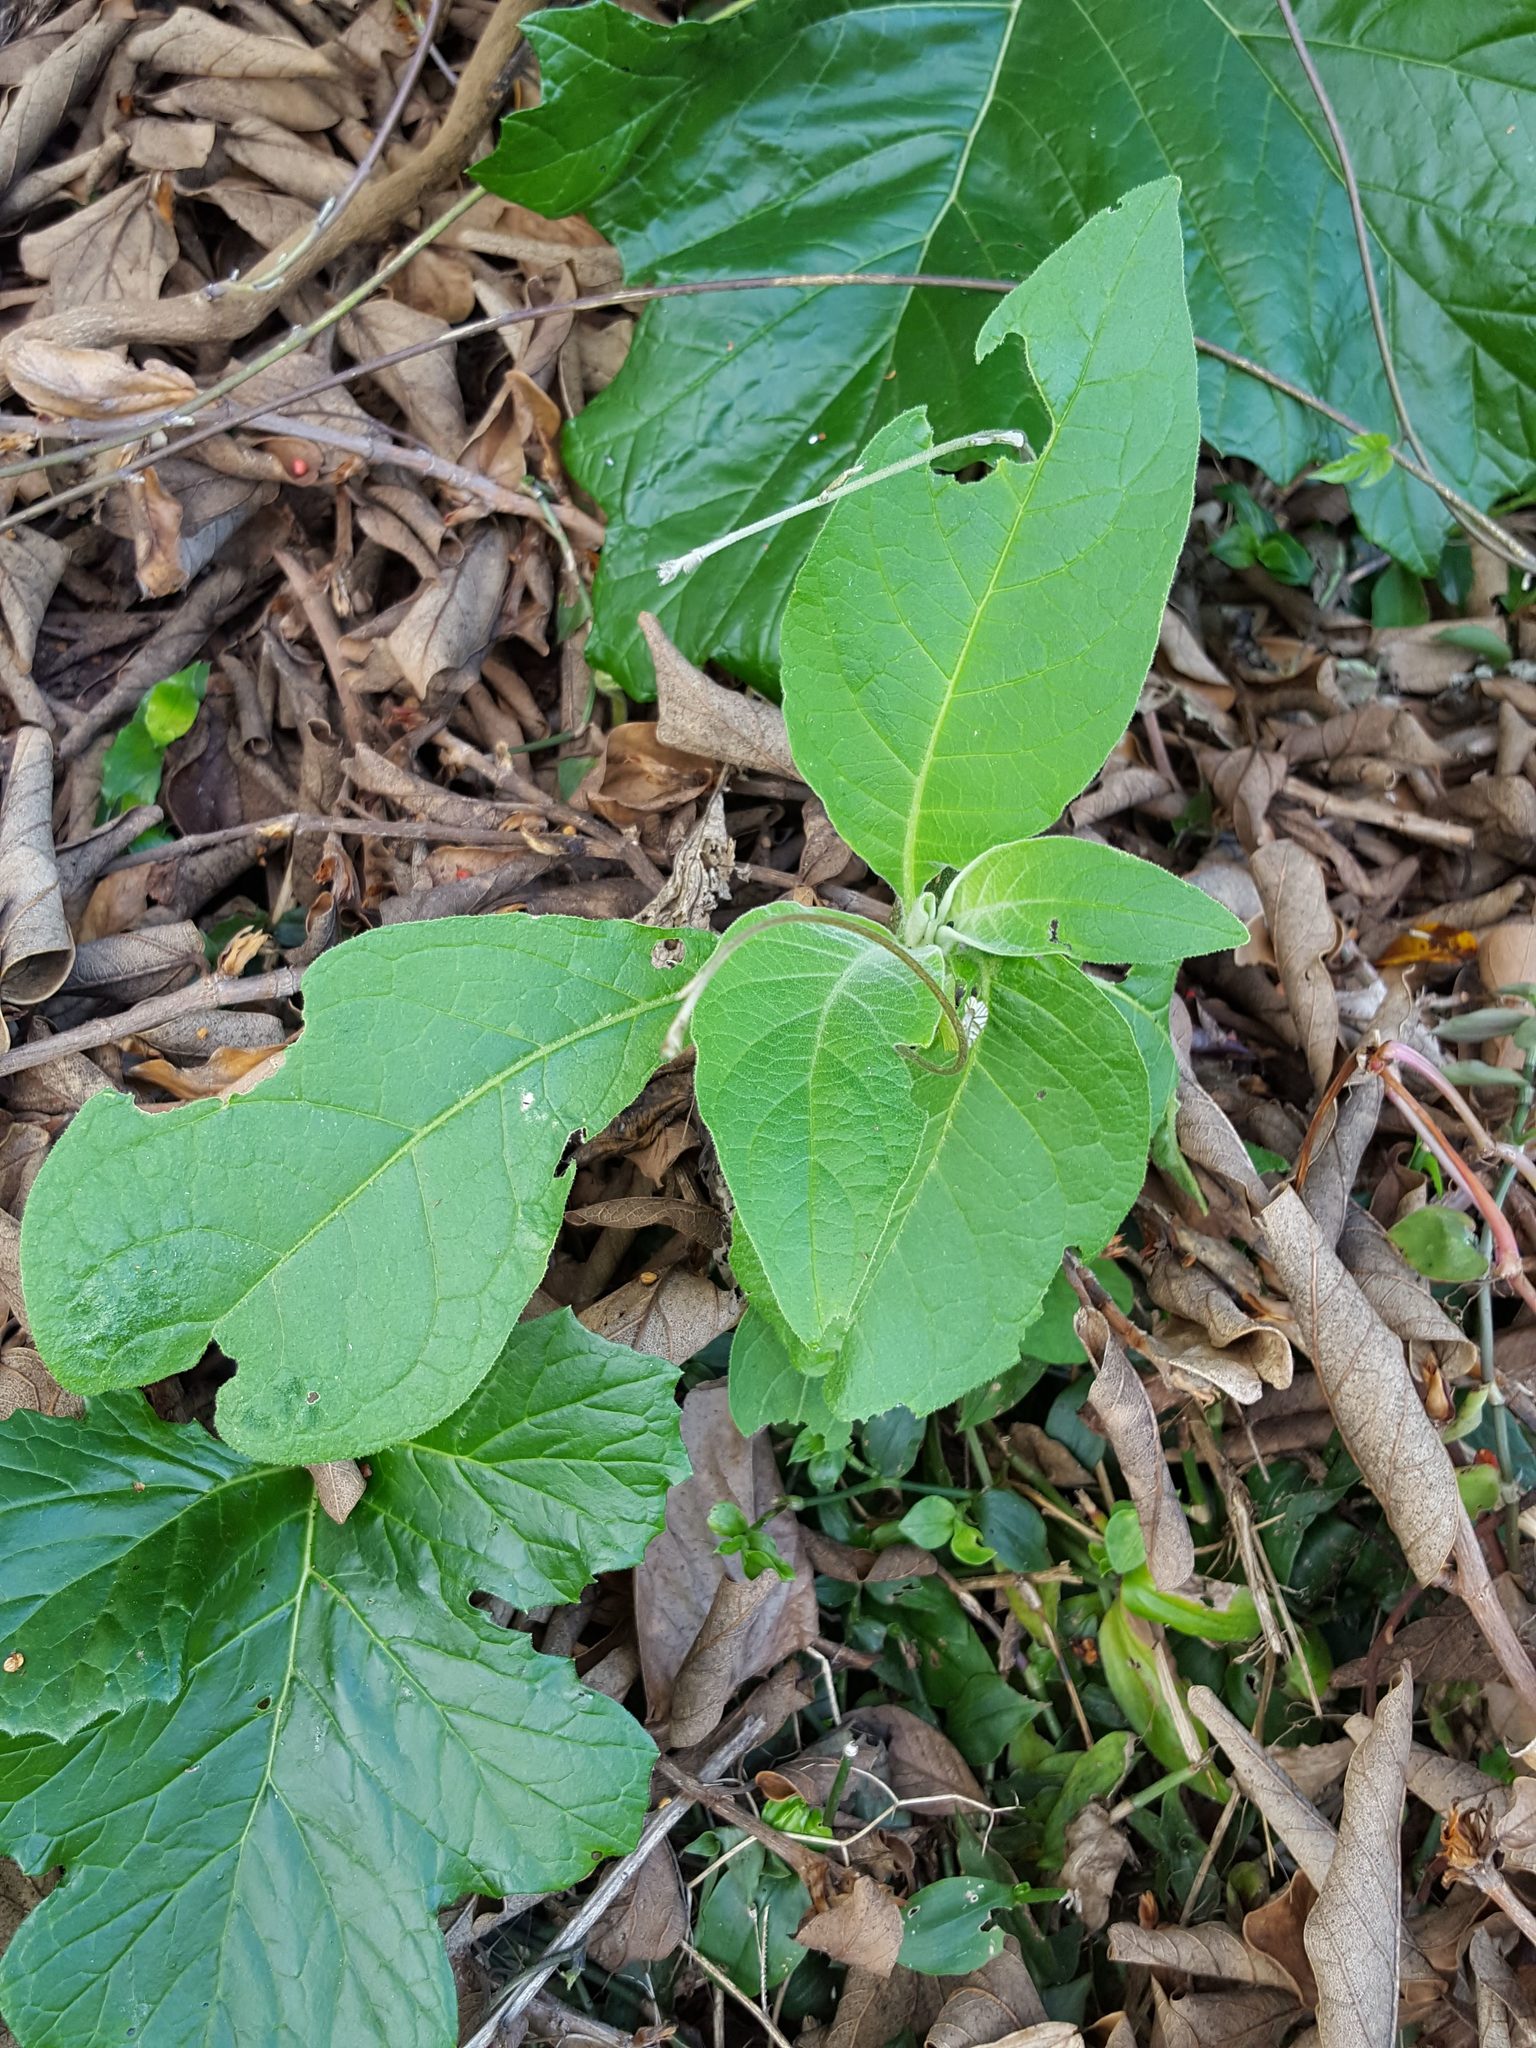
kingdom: Plantae
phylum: Tracheophyta
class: Magnoliopsida
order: Solanales
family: Solanaceae
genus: Solanum
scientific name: Solanum mauritianum
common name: Earleaf nightshade
